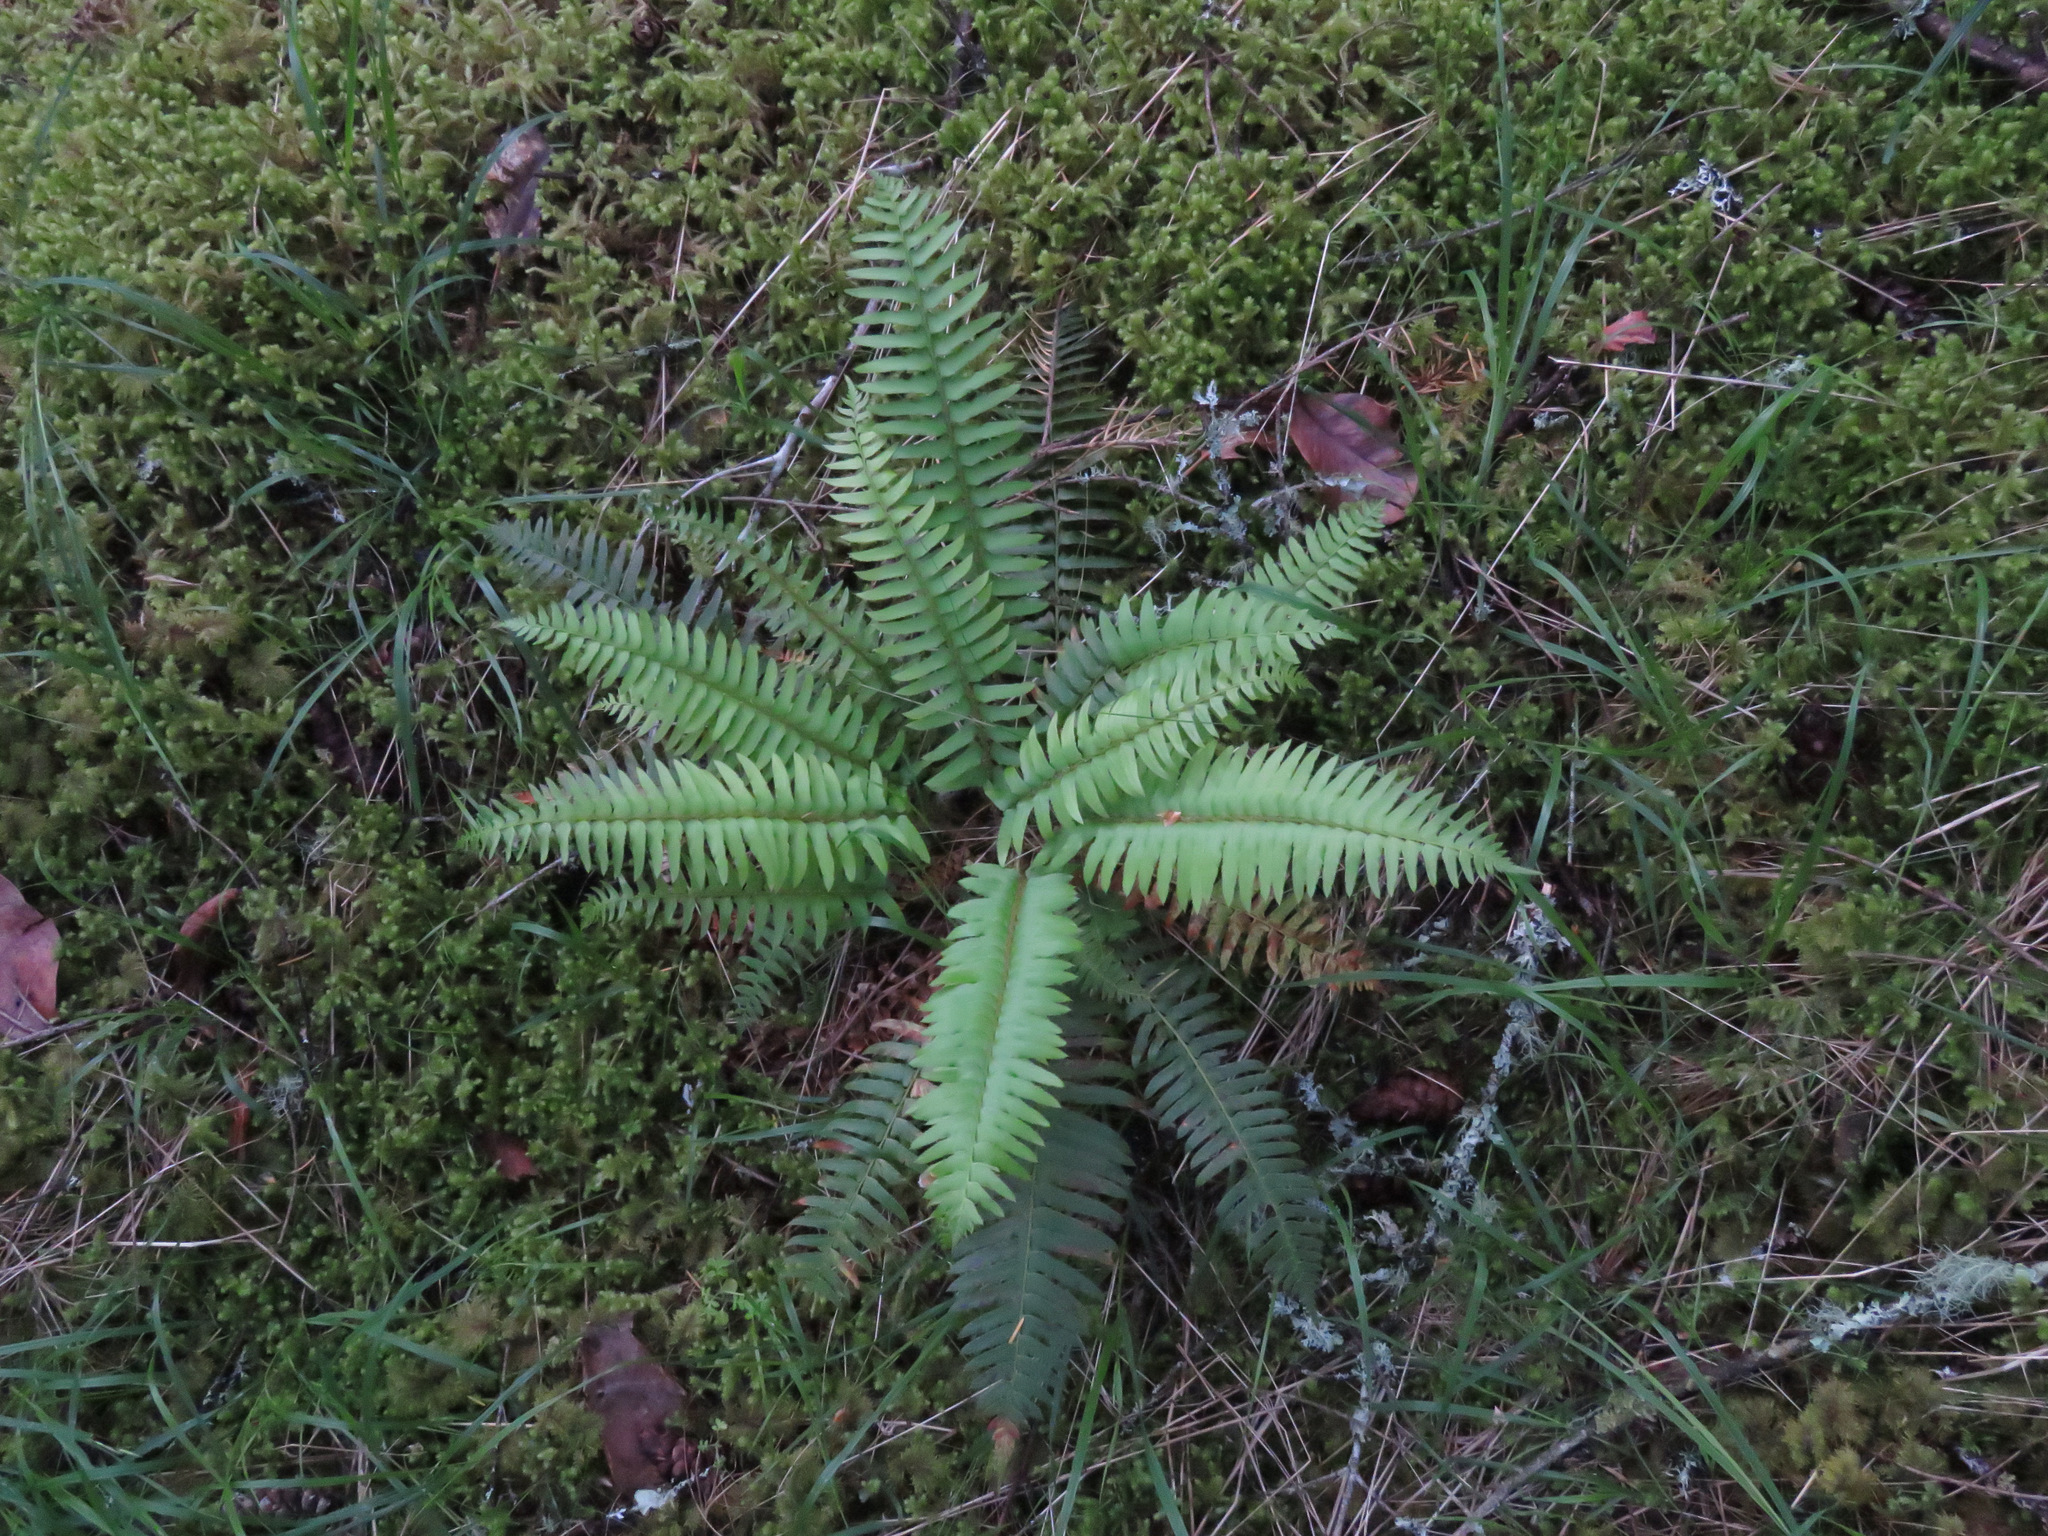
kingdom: Plantae
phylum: Tracheophyta
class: Polypodiopsida
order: Polypodiales
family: Dryopteridaceae
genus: Polystichum
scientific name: Polystichum munitum
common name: Western sword-fern
